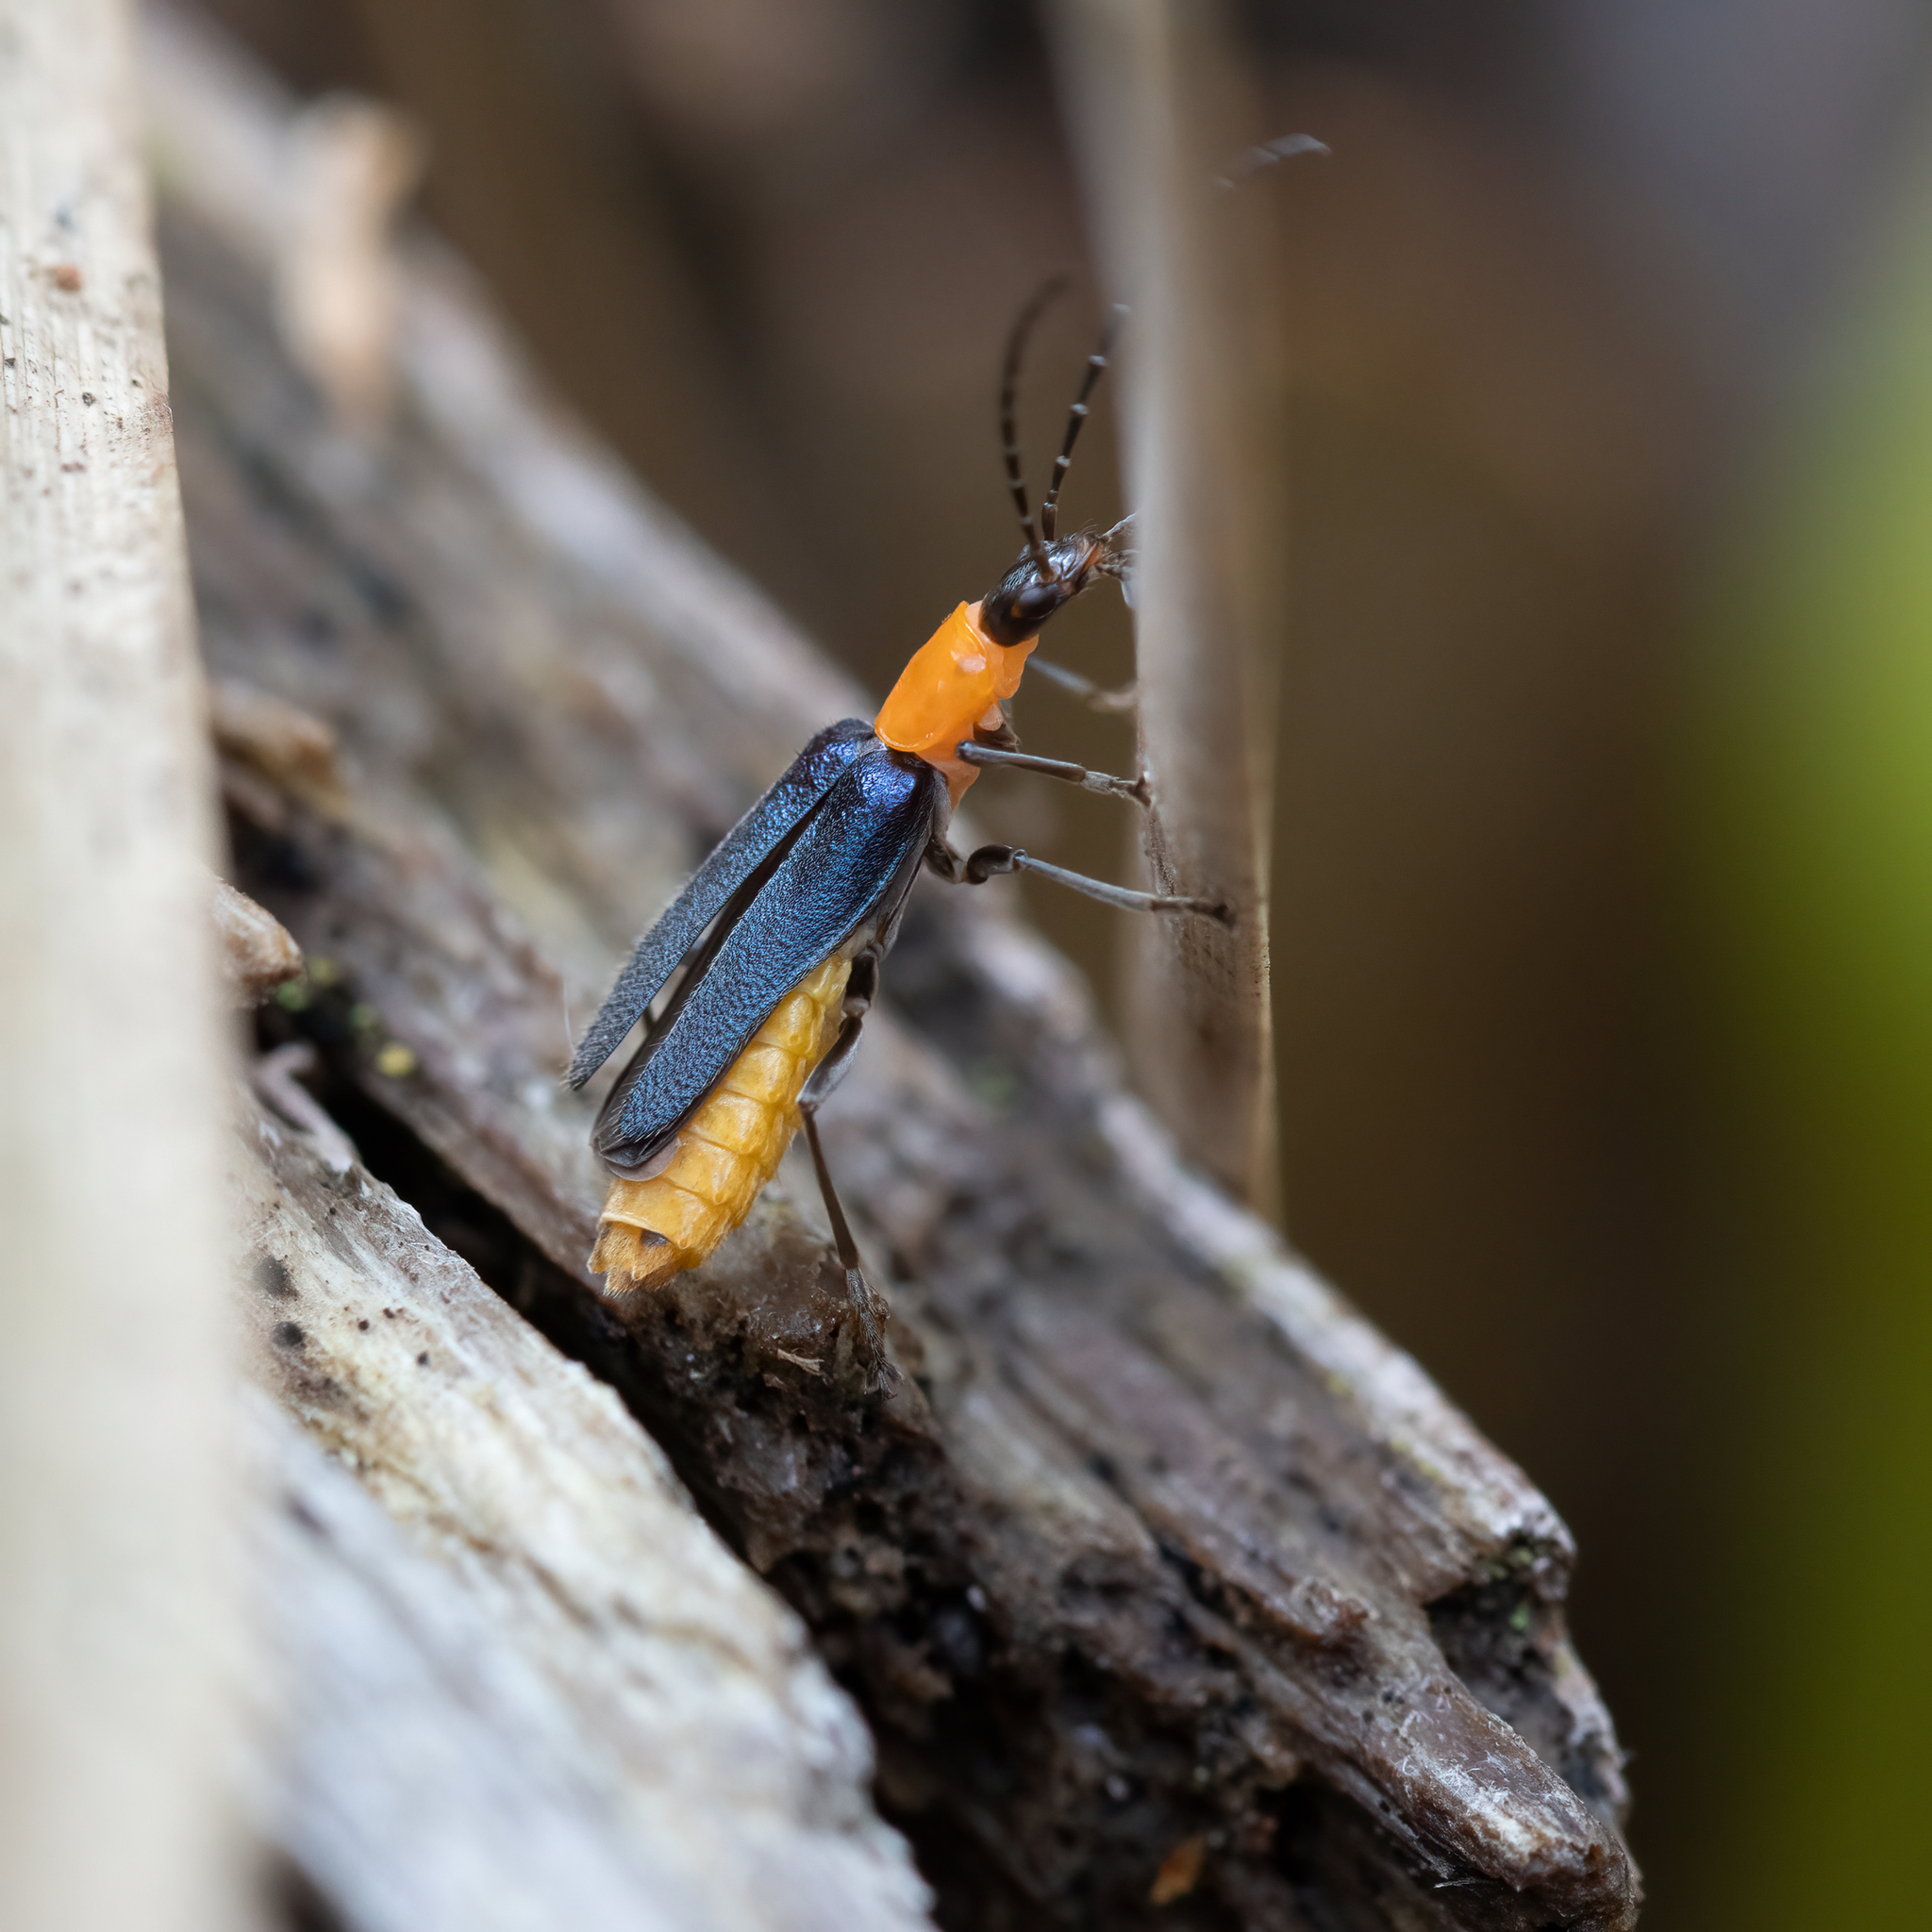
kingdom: Animalia
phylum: Arthropoda
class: Insecta
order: Coleoptera
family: Cantharidae
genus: Chauliognathus
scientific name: Chauliognathus
